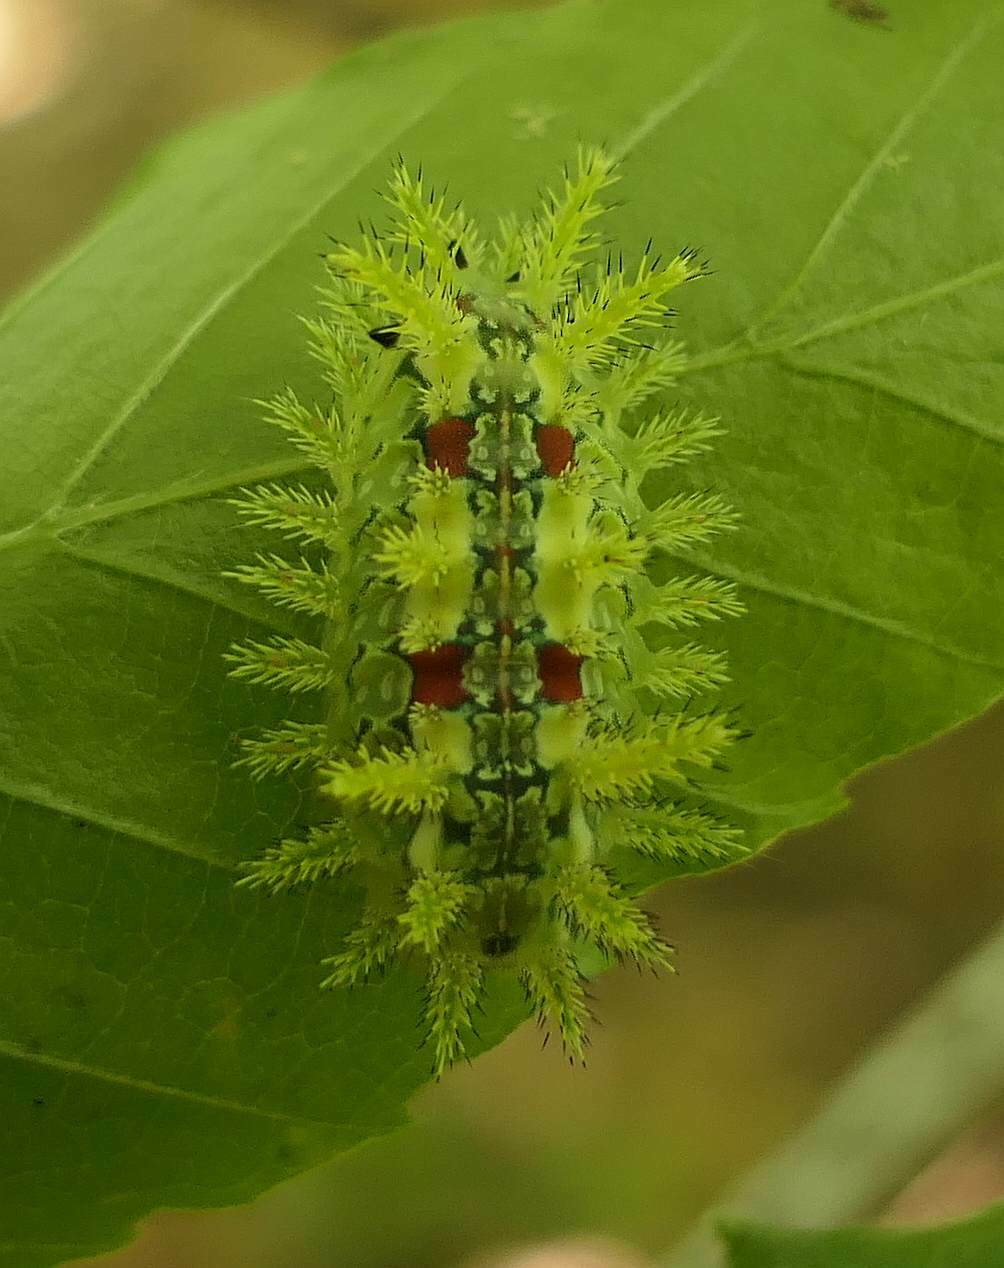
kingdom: Animalia
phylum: Arthropoda
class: Insecta
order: Lepidoptera
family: Limacodidae
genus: Euclea
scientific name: Euclea delphinii
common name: Spiny oak-slug moth
